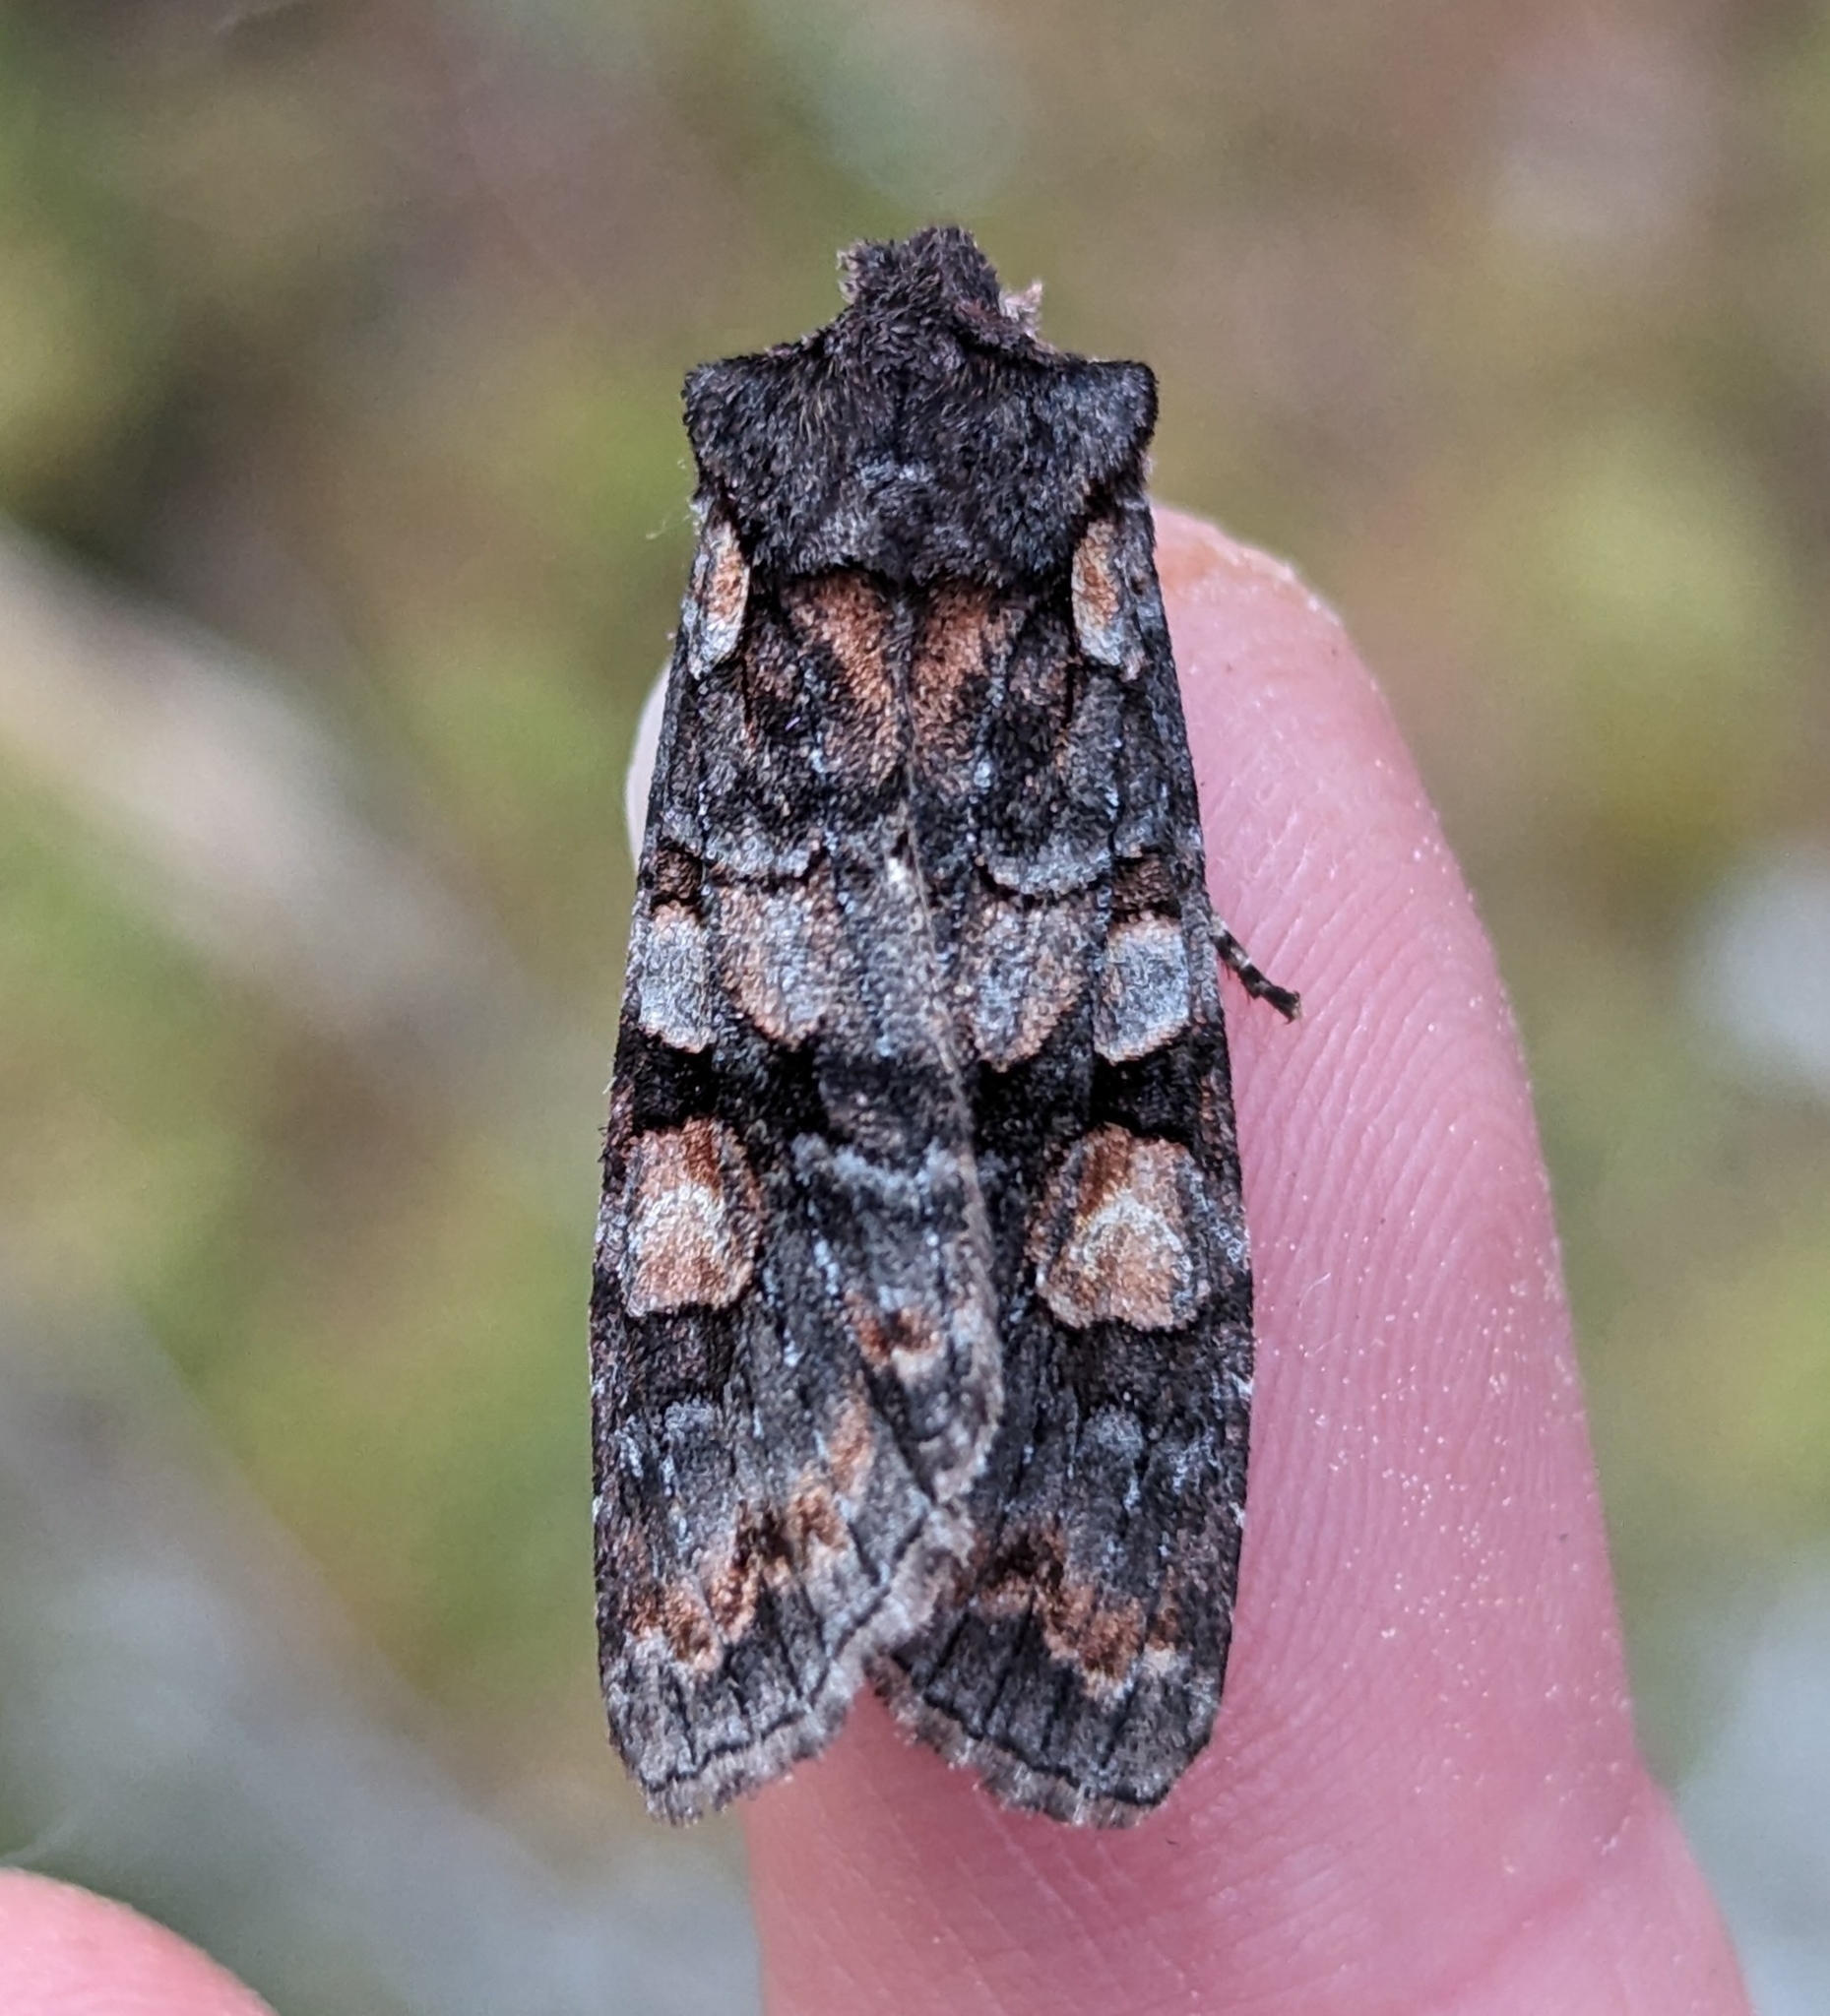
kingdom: Animalia
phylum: Arthropoda
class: Insecta
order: Lepidoptera
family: Noctuidae
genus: Lithophane
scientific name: Lithophane dilatocula
